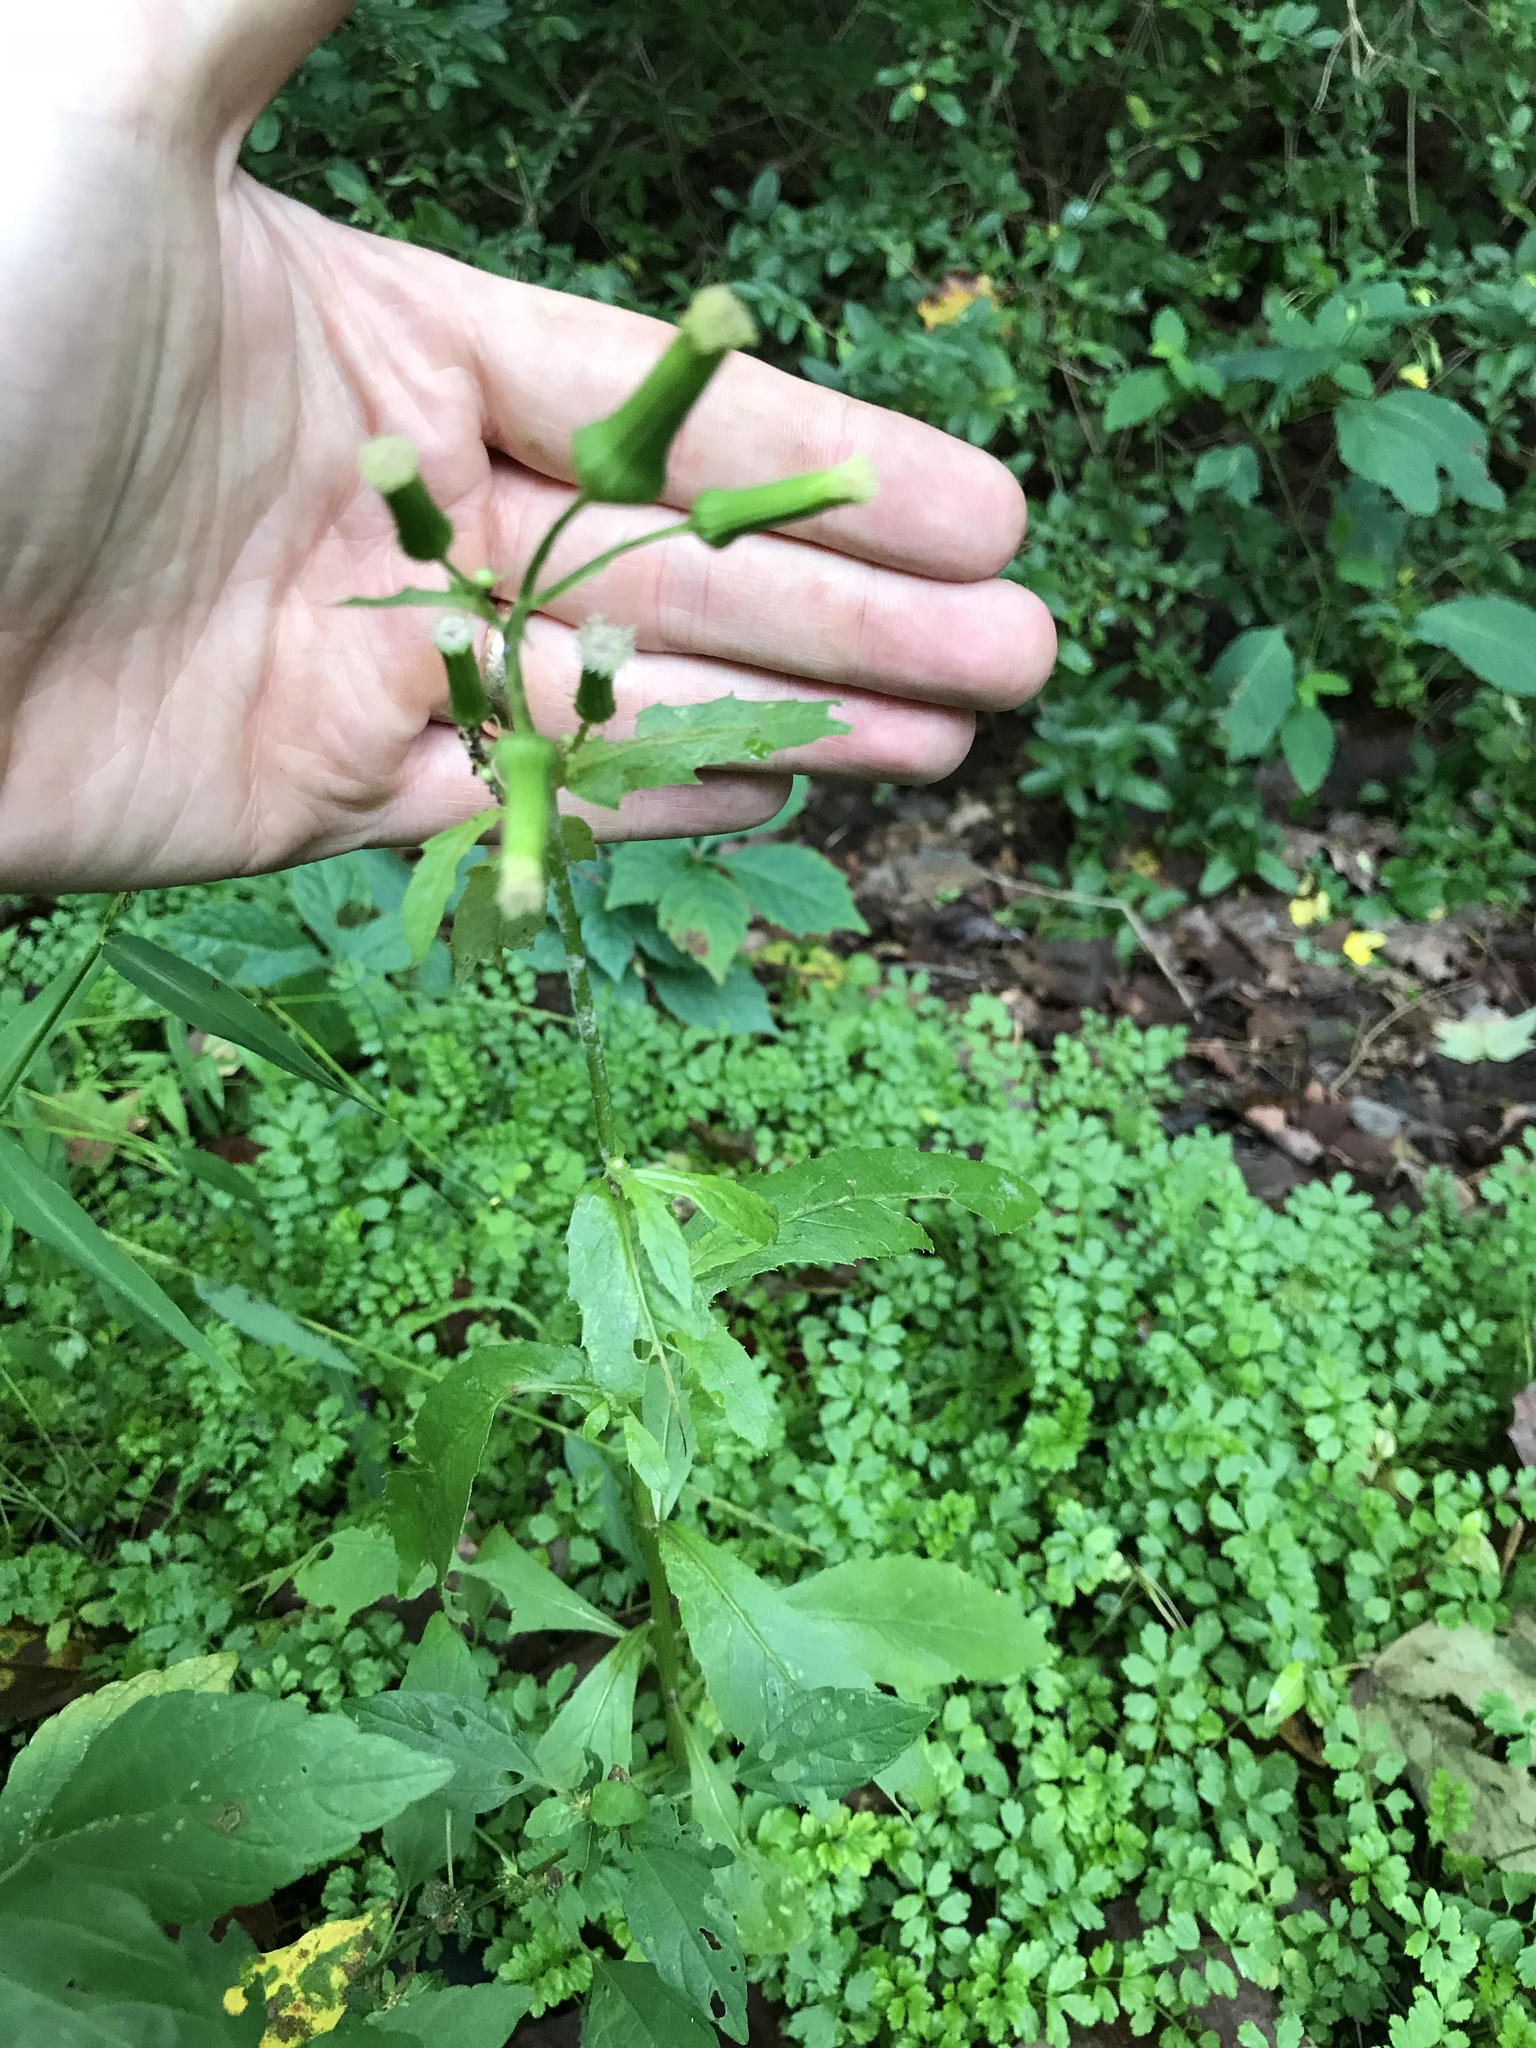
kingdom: Plantae
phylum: Tracheophyta
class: Magnoliopsida
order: Asterales
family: Asteraceae
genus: Erechtites
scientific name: Erechtites hieraciifolius
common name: American burnweed
